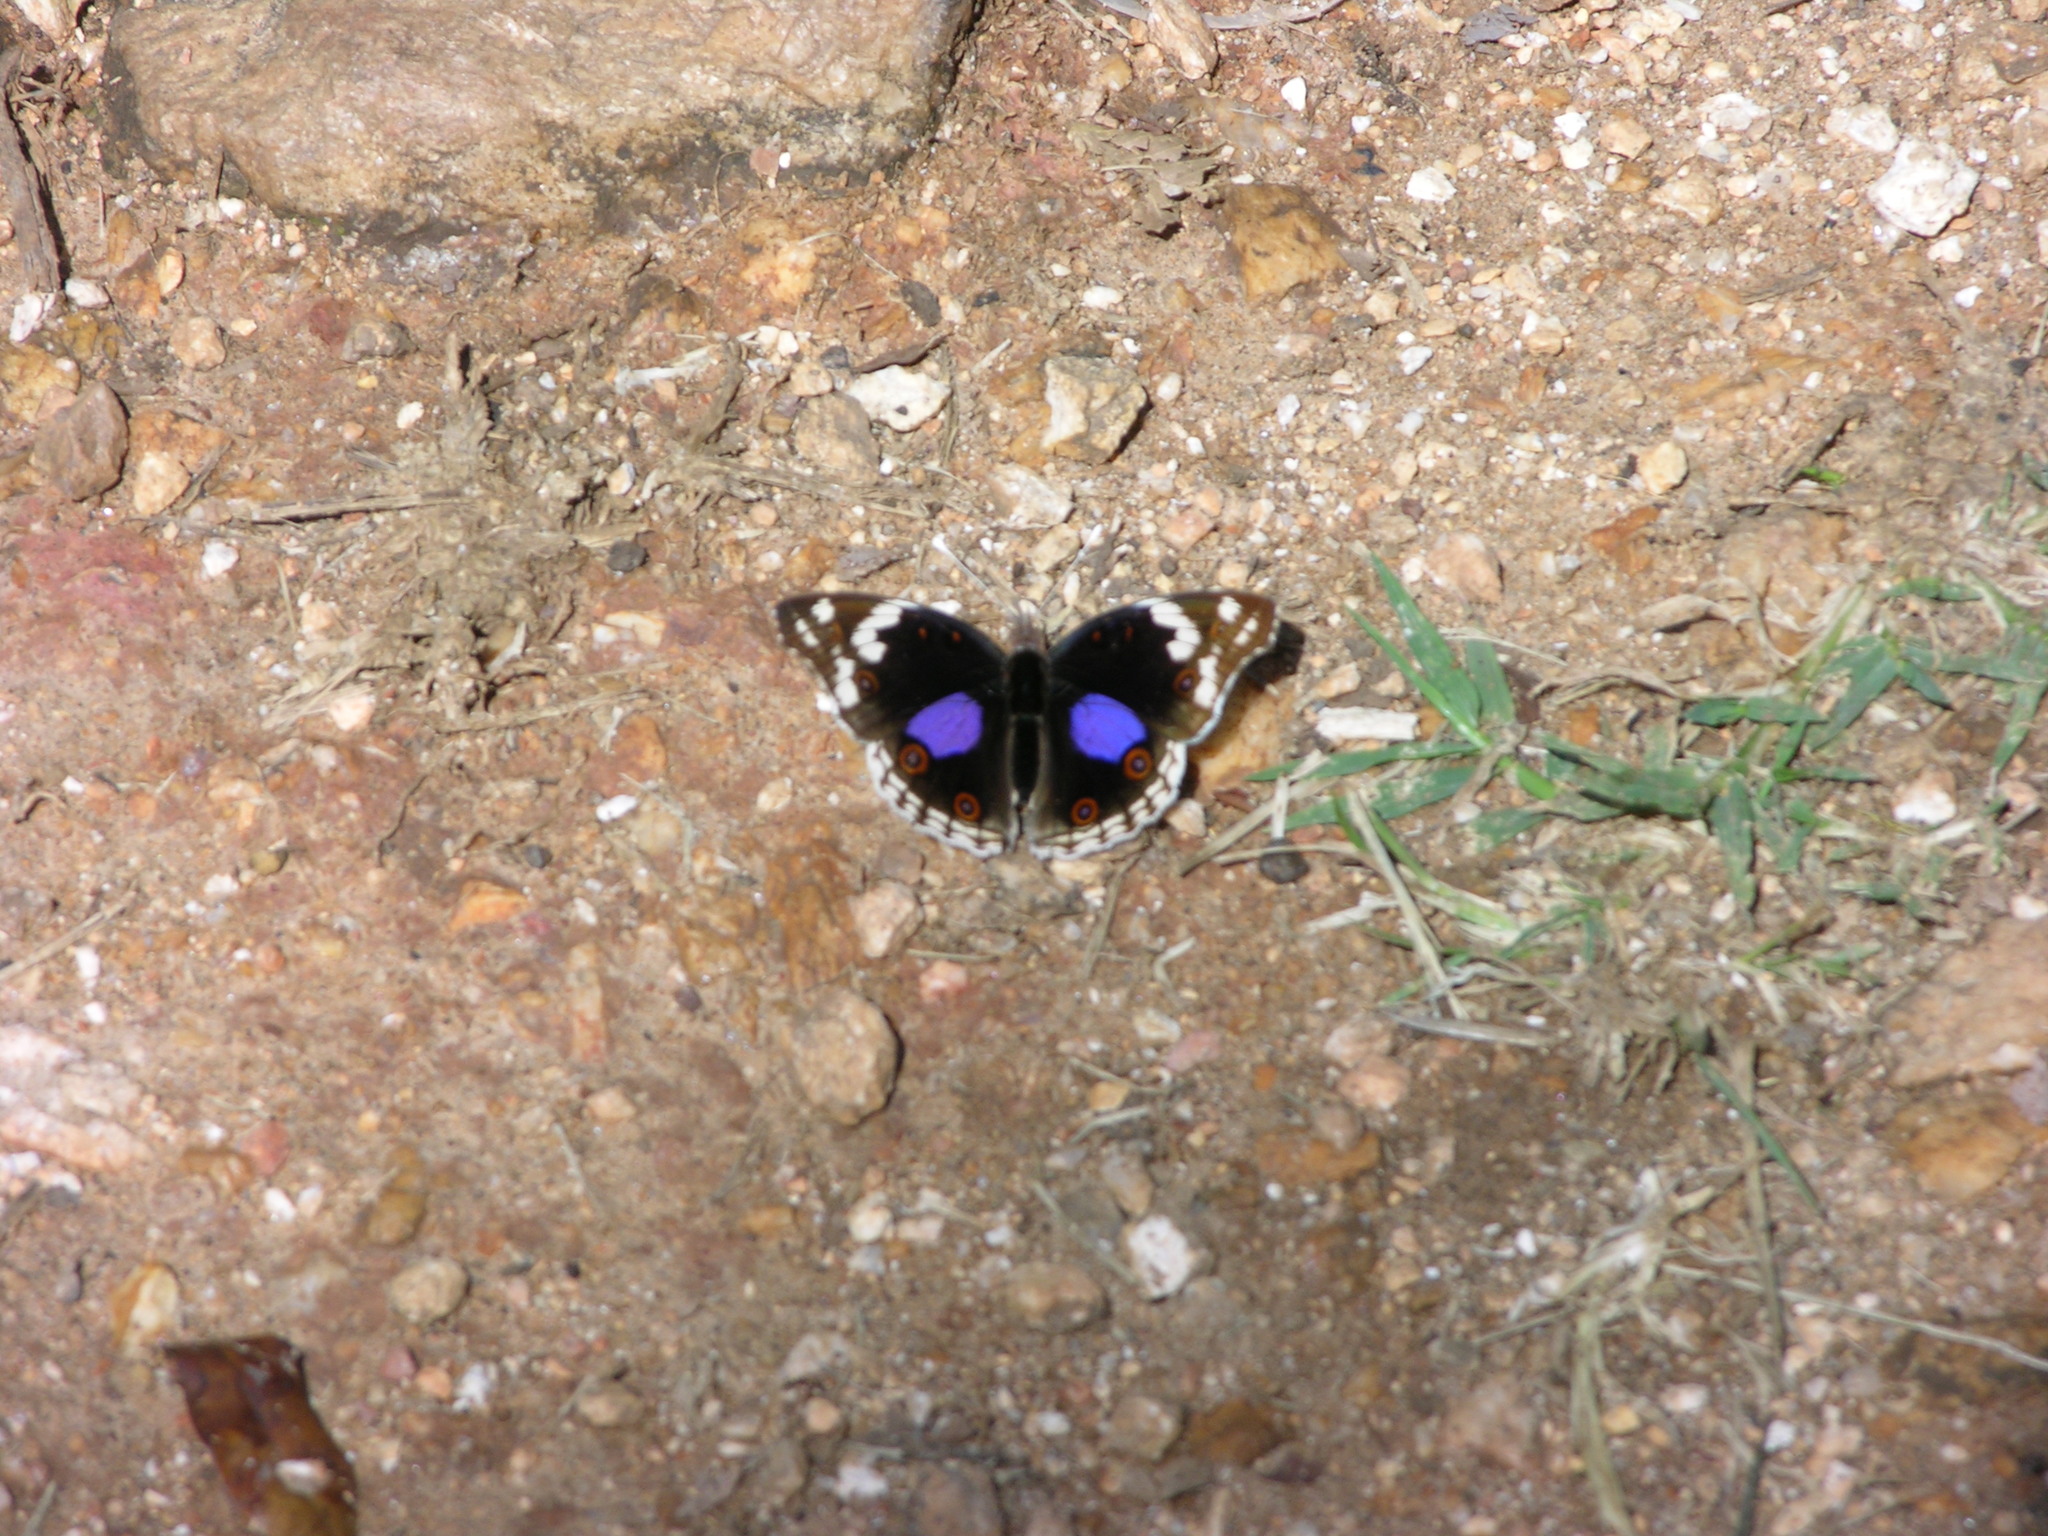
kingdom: Animalia
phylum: Arthropoda
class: Insecta
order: Lepidoptera
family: Nymphalidae
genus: Junonia
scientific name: Junonia oenone
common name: Dark blue pansy
